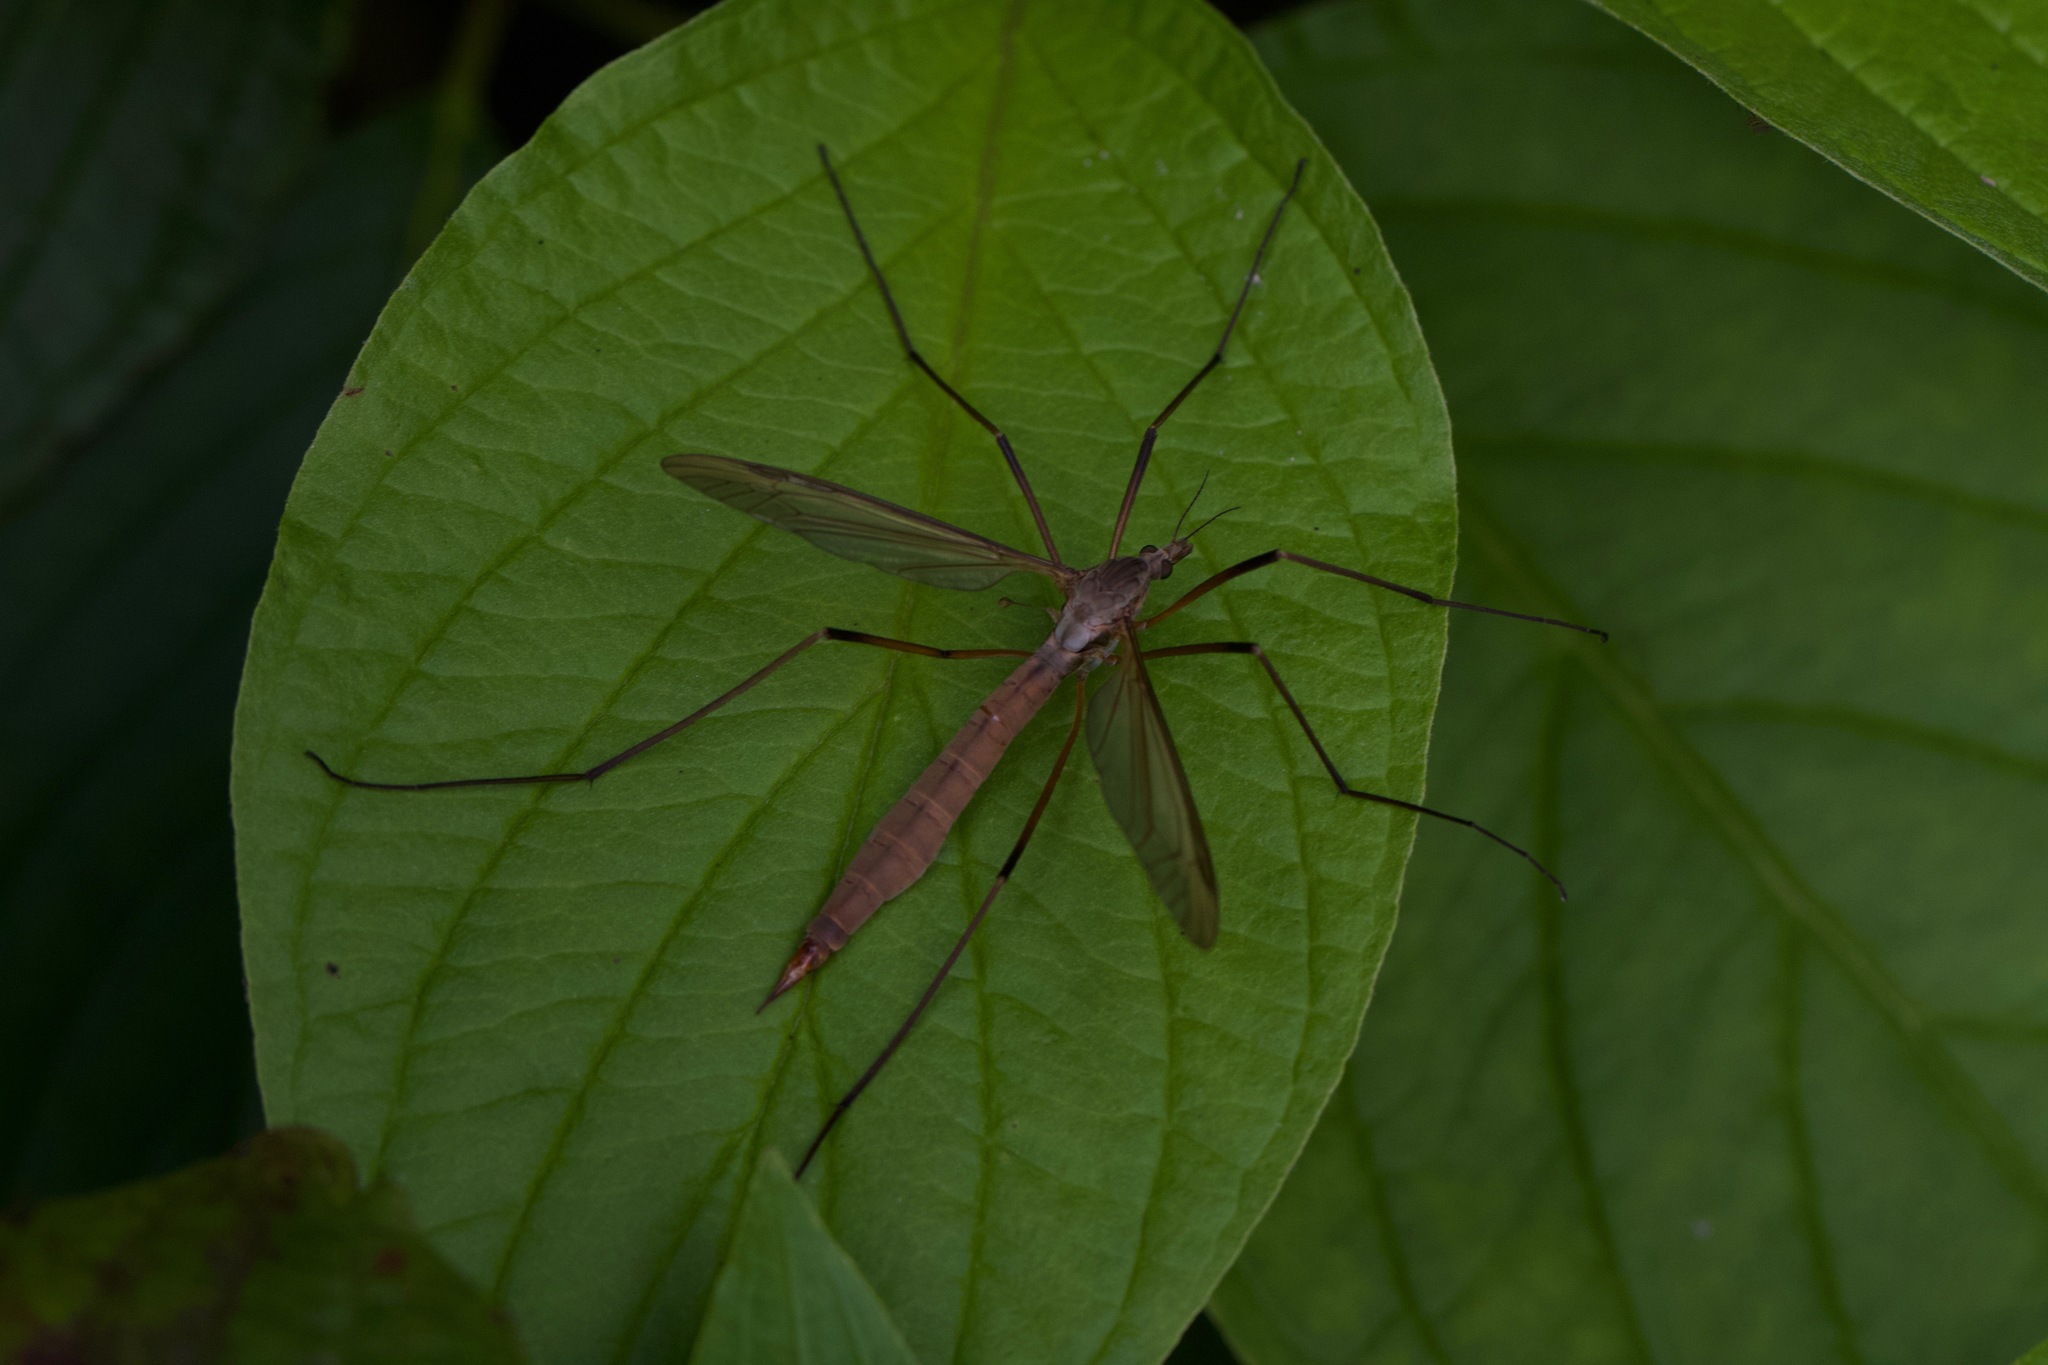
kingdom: Animalia
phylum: Arthropoda
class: Insecta
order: Diptera
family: Tipulidae
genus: Tipula
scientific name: Tipula paludosa
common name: European cranefly
